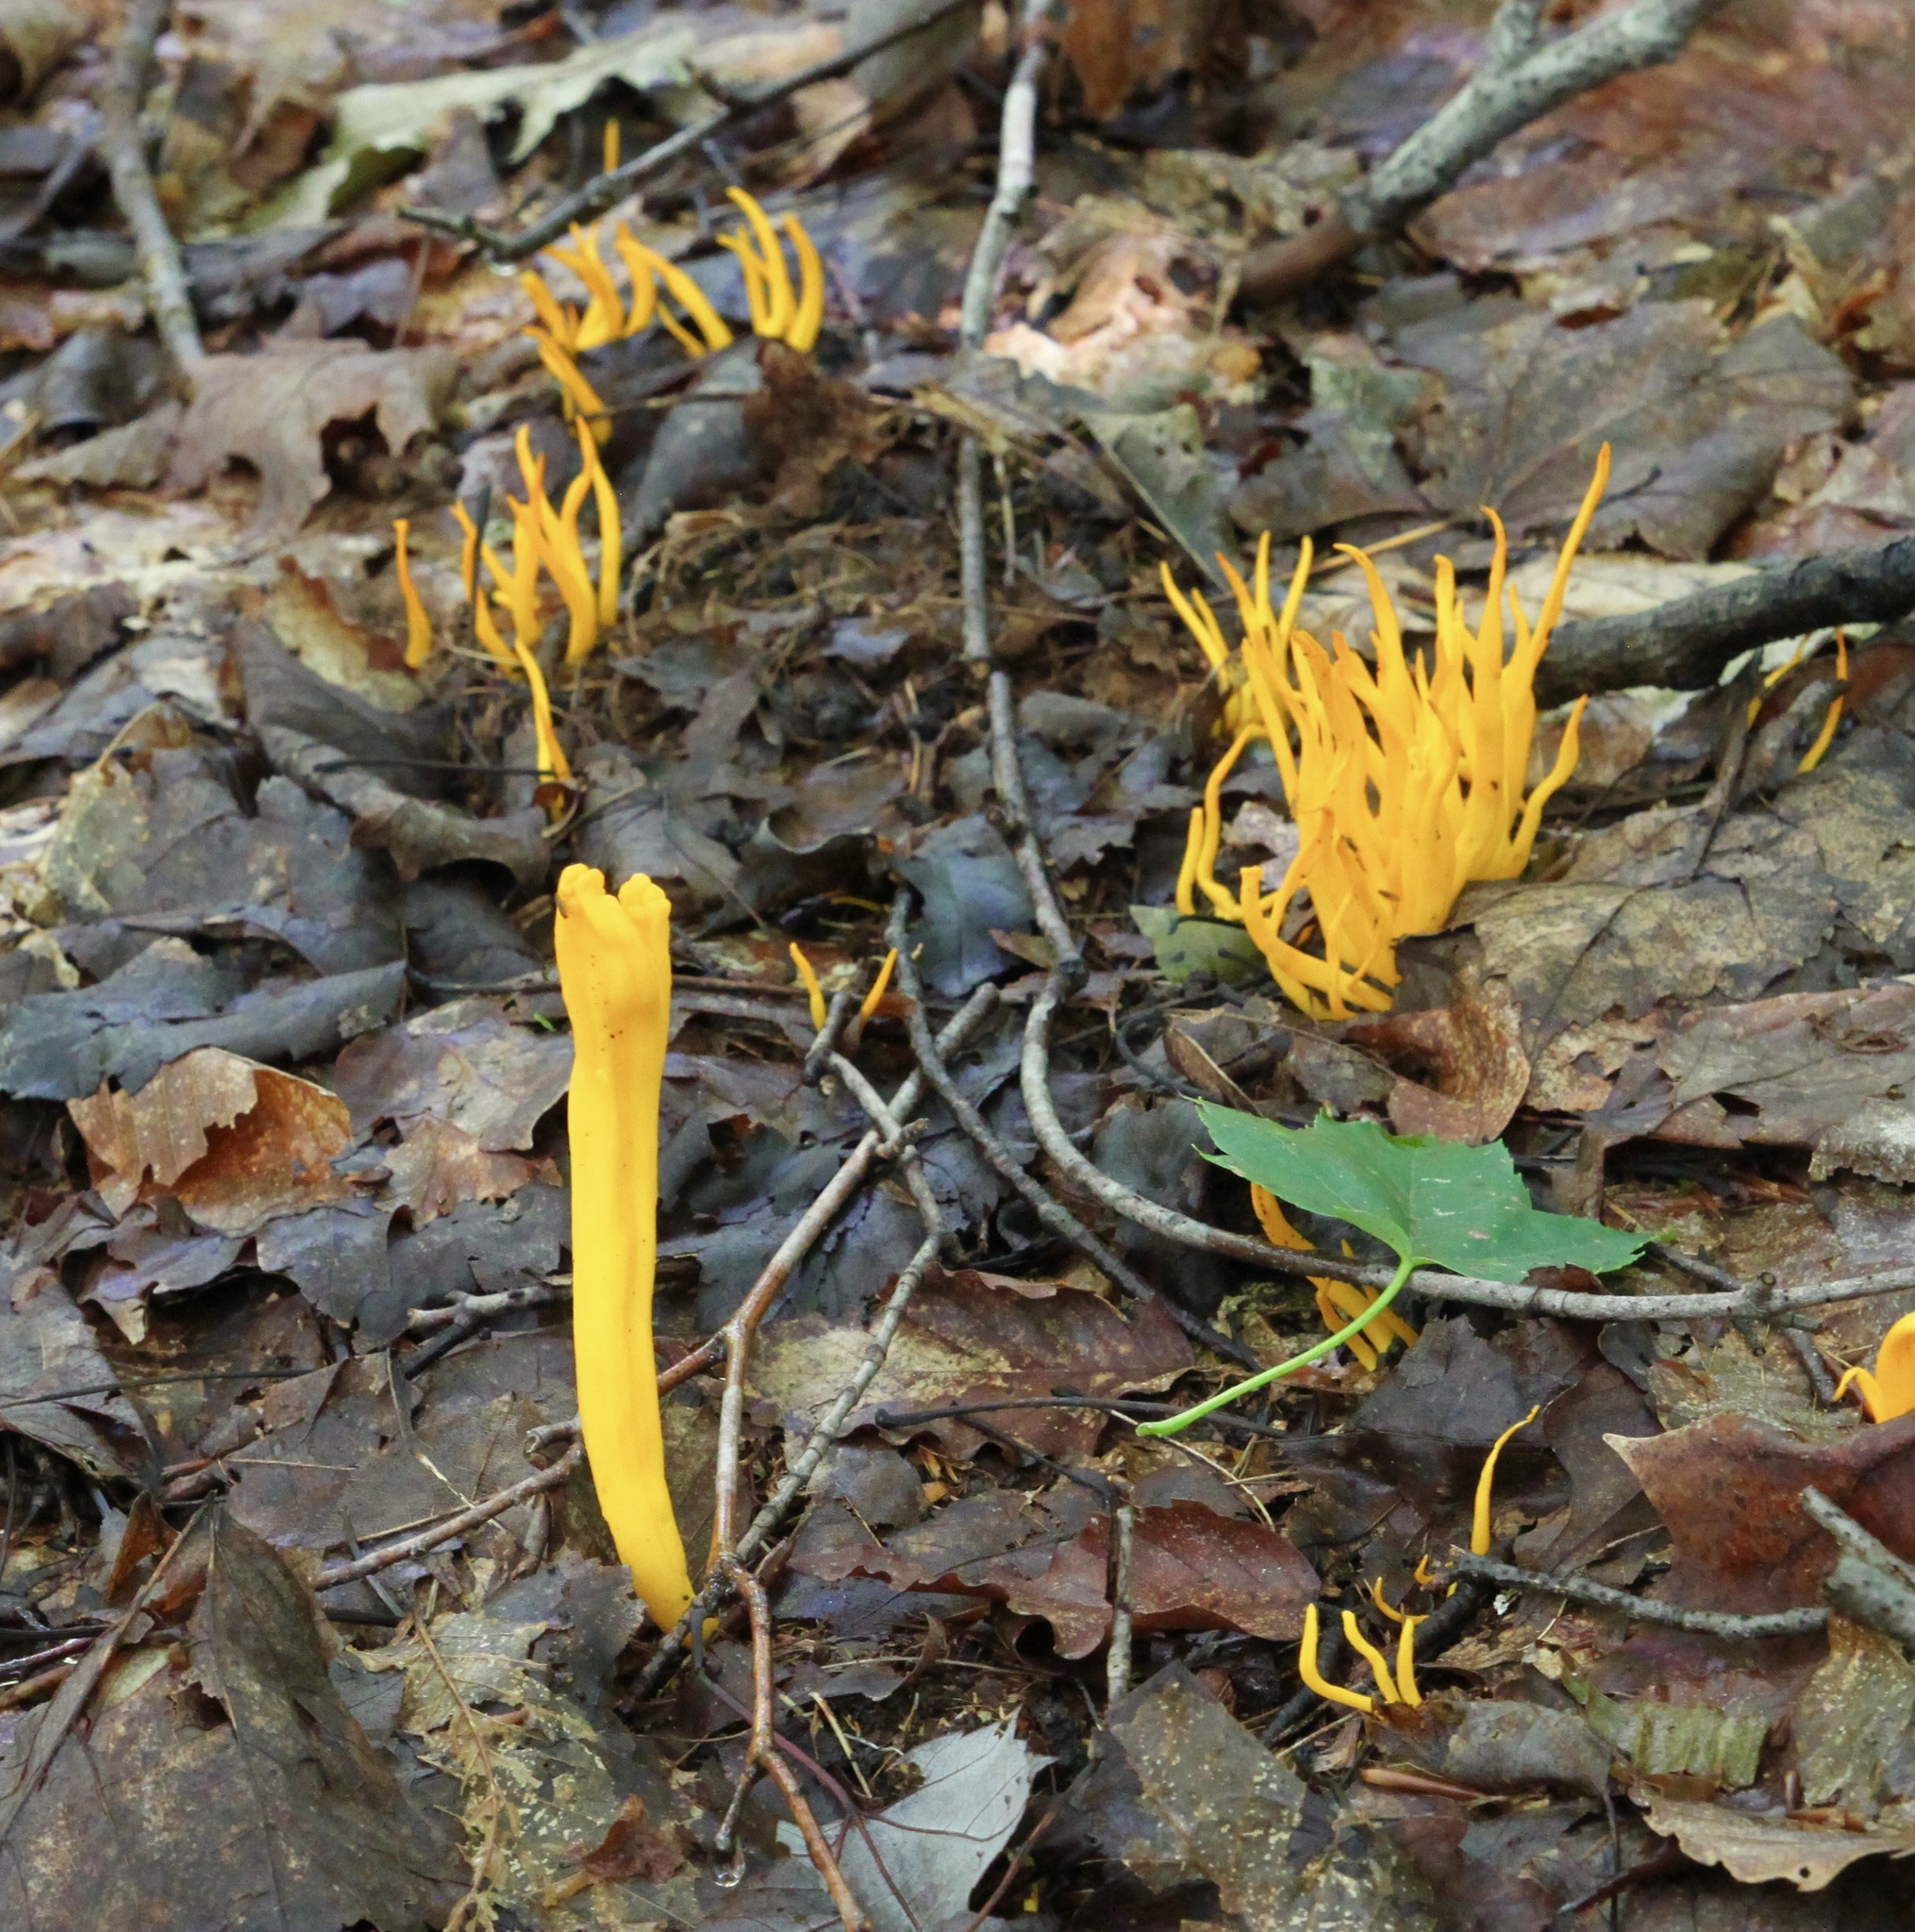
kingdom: Fungi
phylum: Basidiomycota
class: Agaricomycetes
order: Agaricales
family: Clavariaceae
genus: Clavulinopsis
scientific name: Clavulinopsis aurantiocinnabarina
